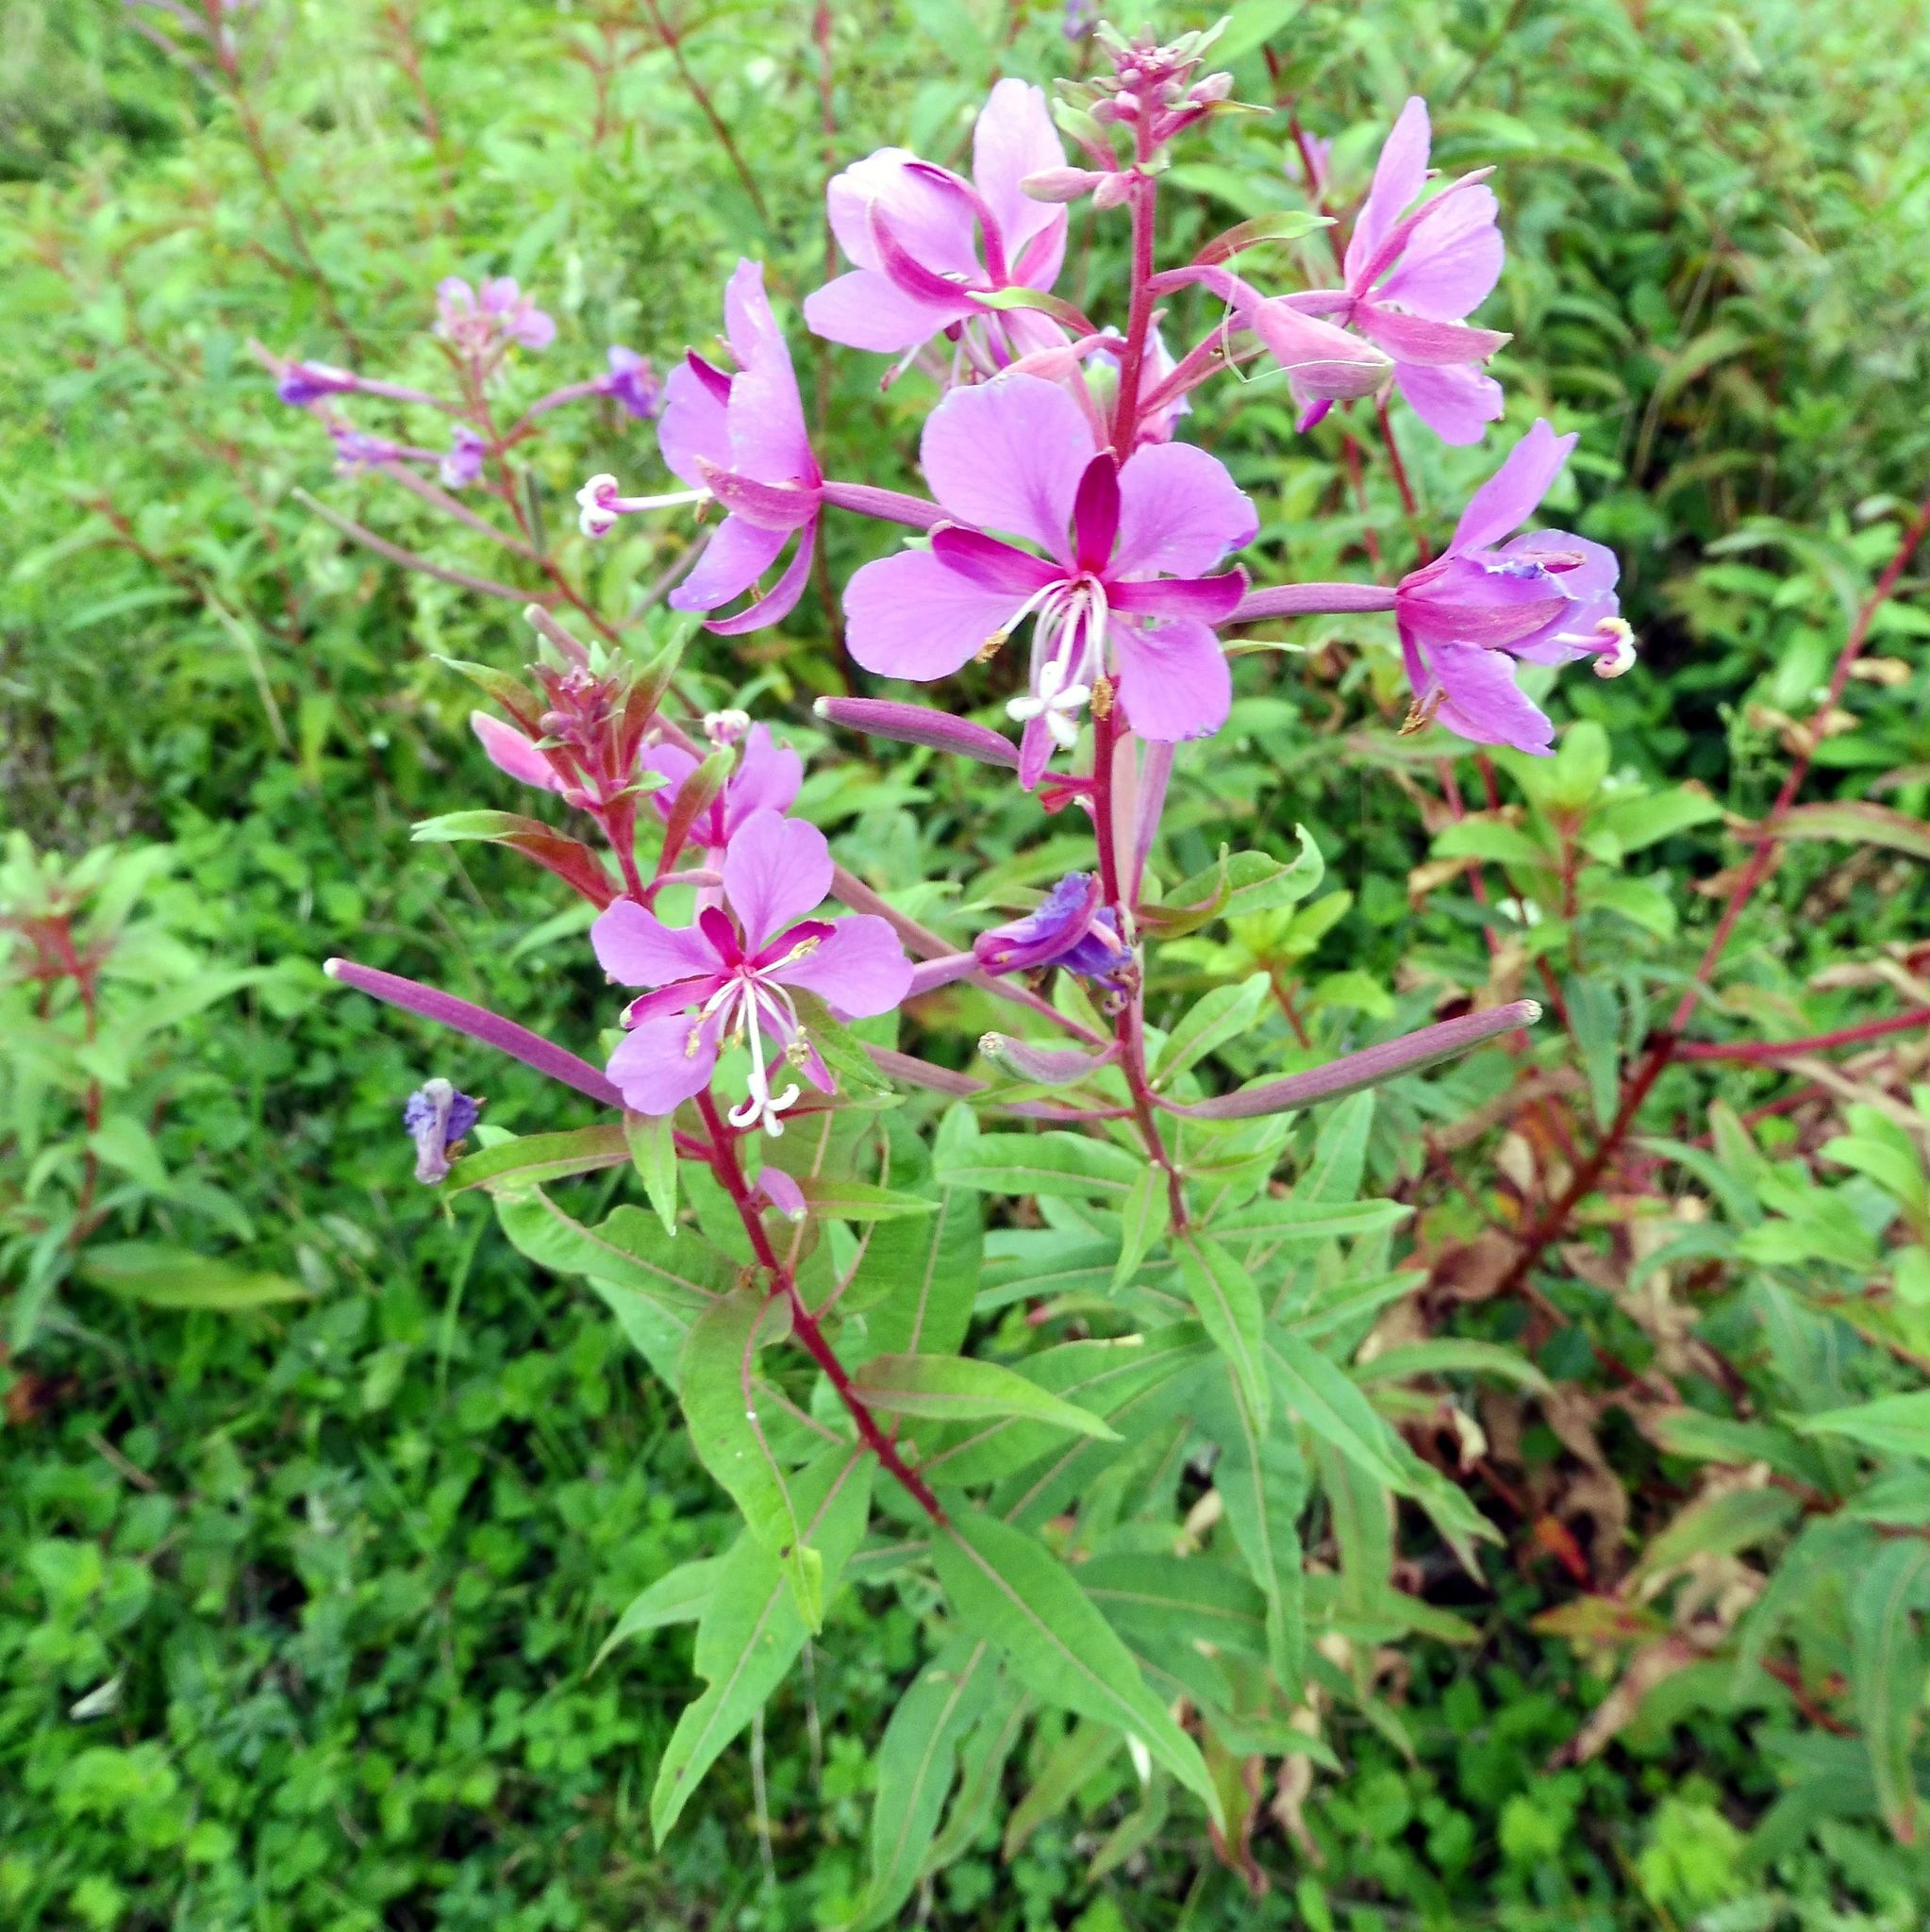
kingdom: Plantae
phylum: Tracheophyta
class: Magnoliopsida
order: Myrtales
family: Onagraceae
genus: Chamaenerion
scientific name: Chamaenerion angustifolium
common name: Fireweed
